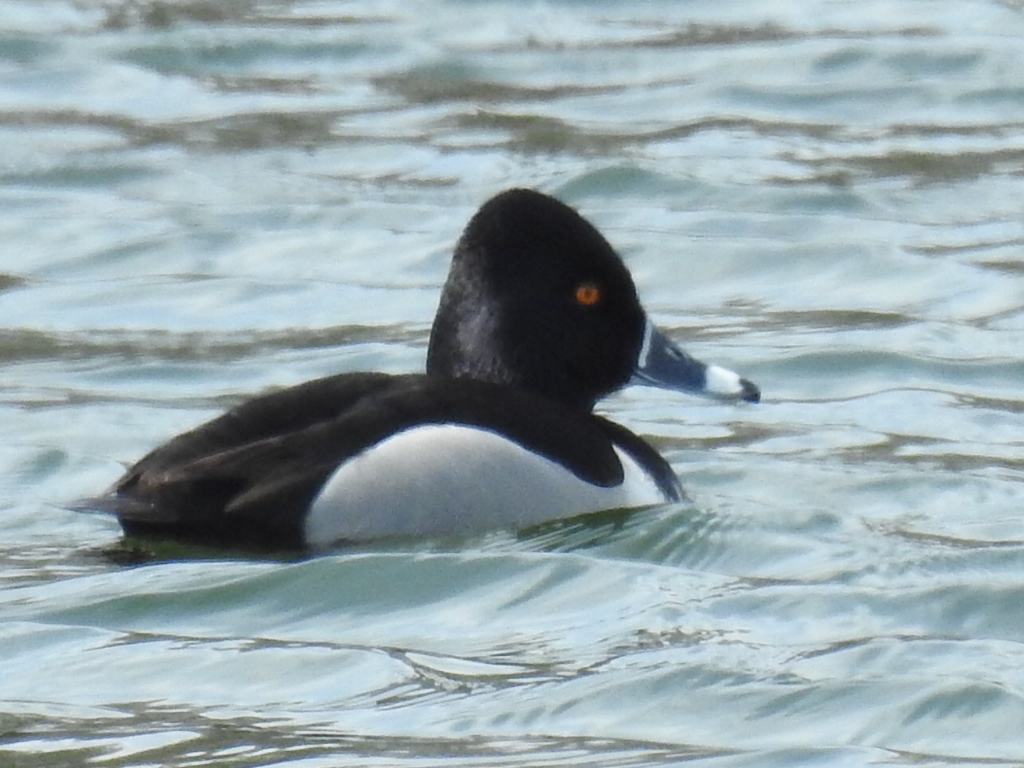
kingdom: Animalia
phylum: Chordata
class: Aves
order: Anseriformes
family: Anatidae
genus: Aythya
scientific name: Aythya collaris
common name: Ring-necked duck
